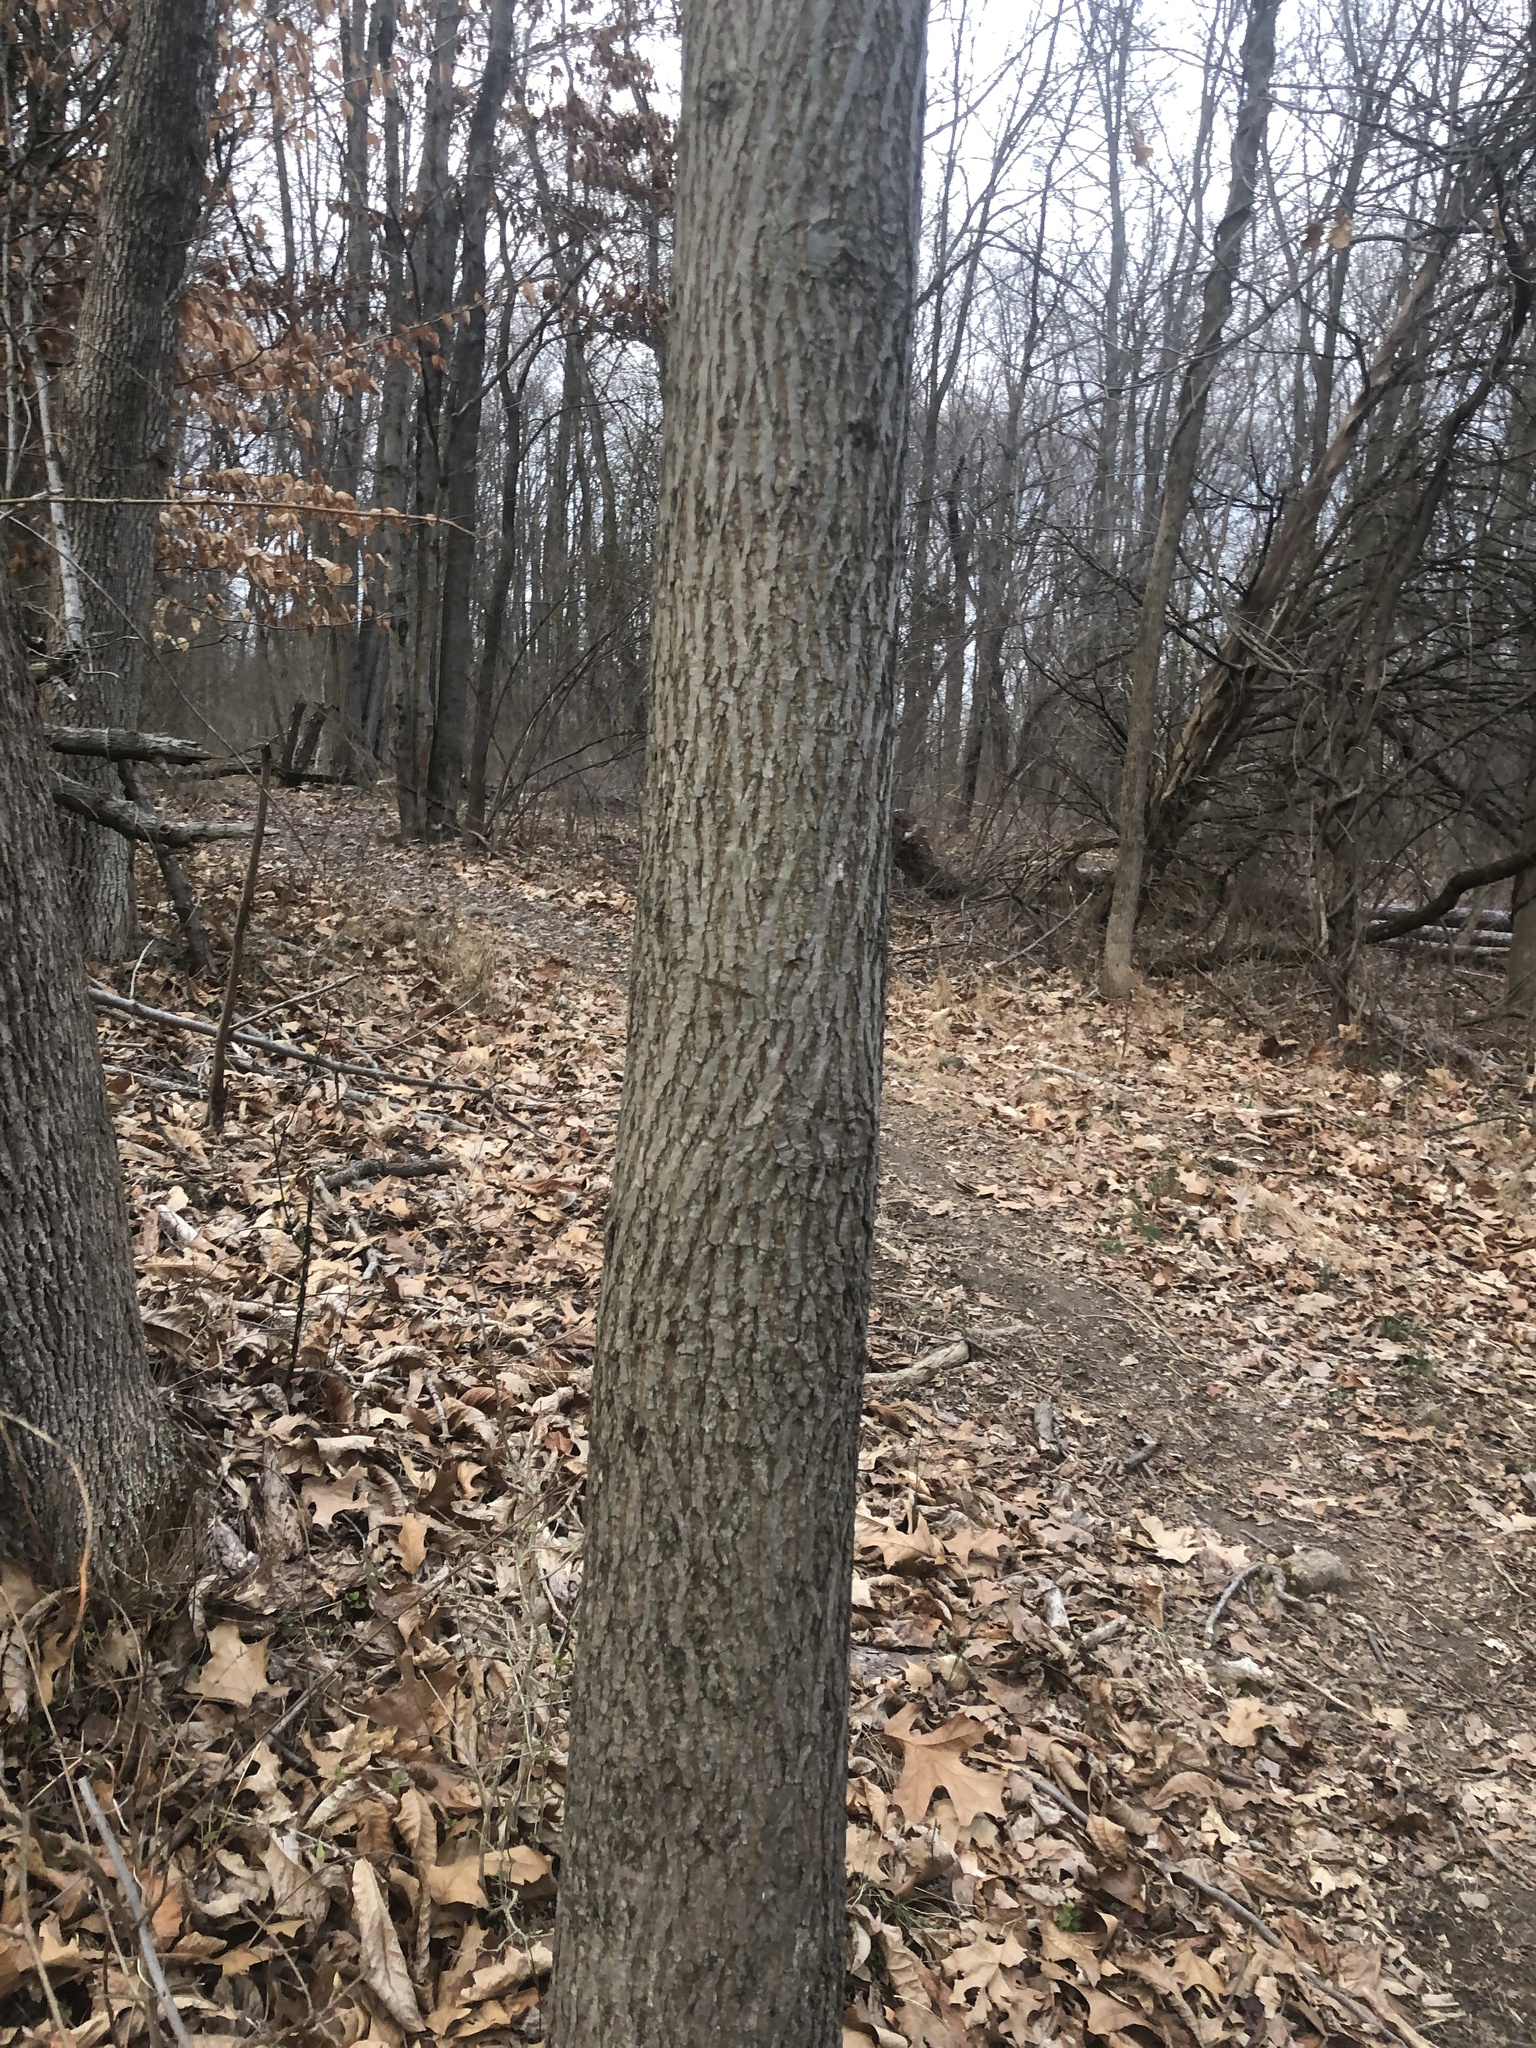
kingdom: Plantae
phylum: Tracheophyta
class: Magnoliopsida
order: Fagales
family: Juglandaceae
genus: Carya
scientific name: Carya alba
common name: Mockernut hickory
